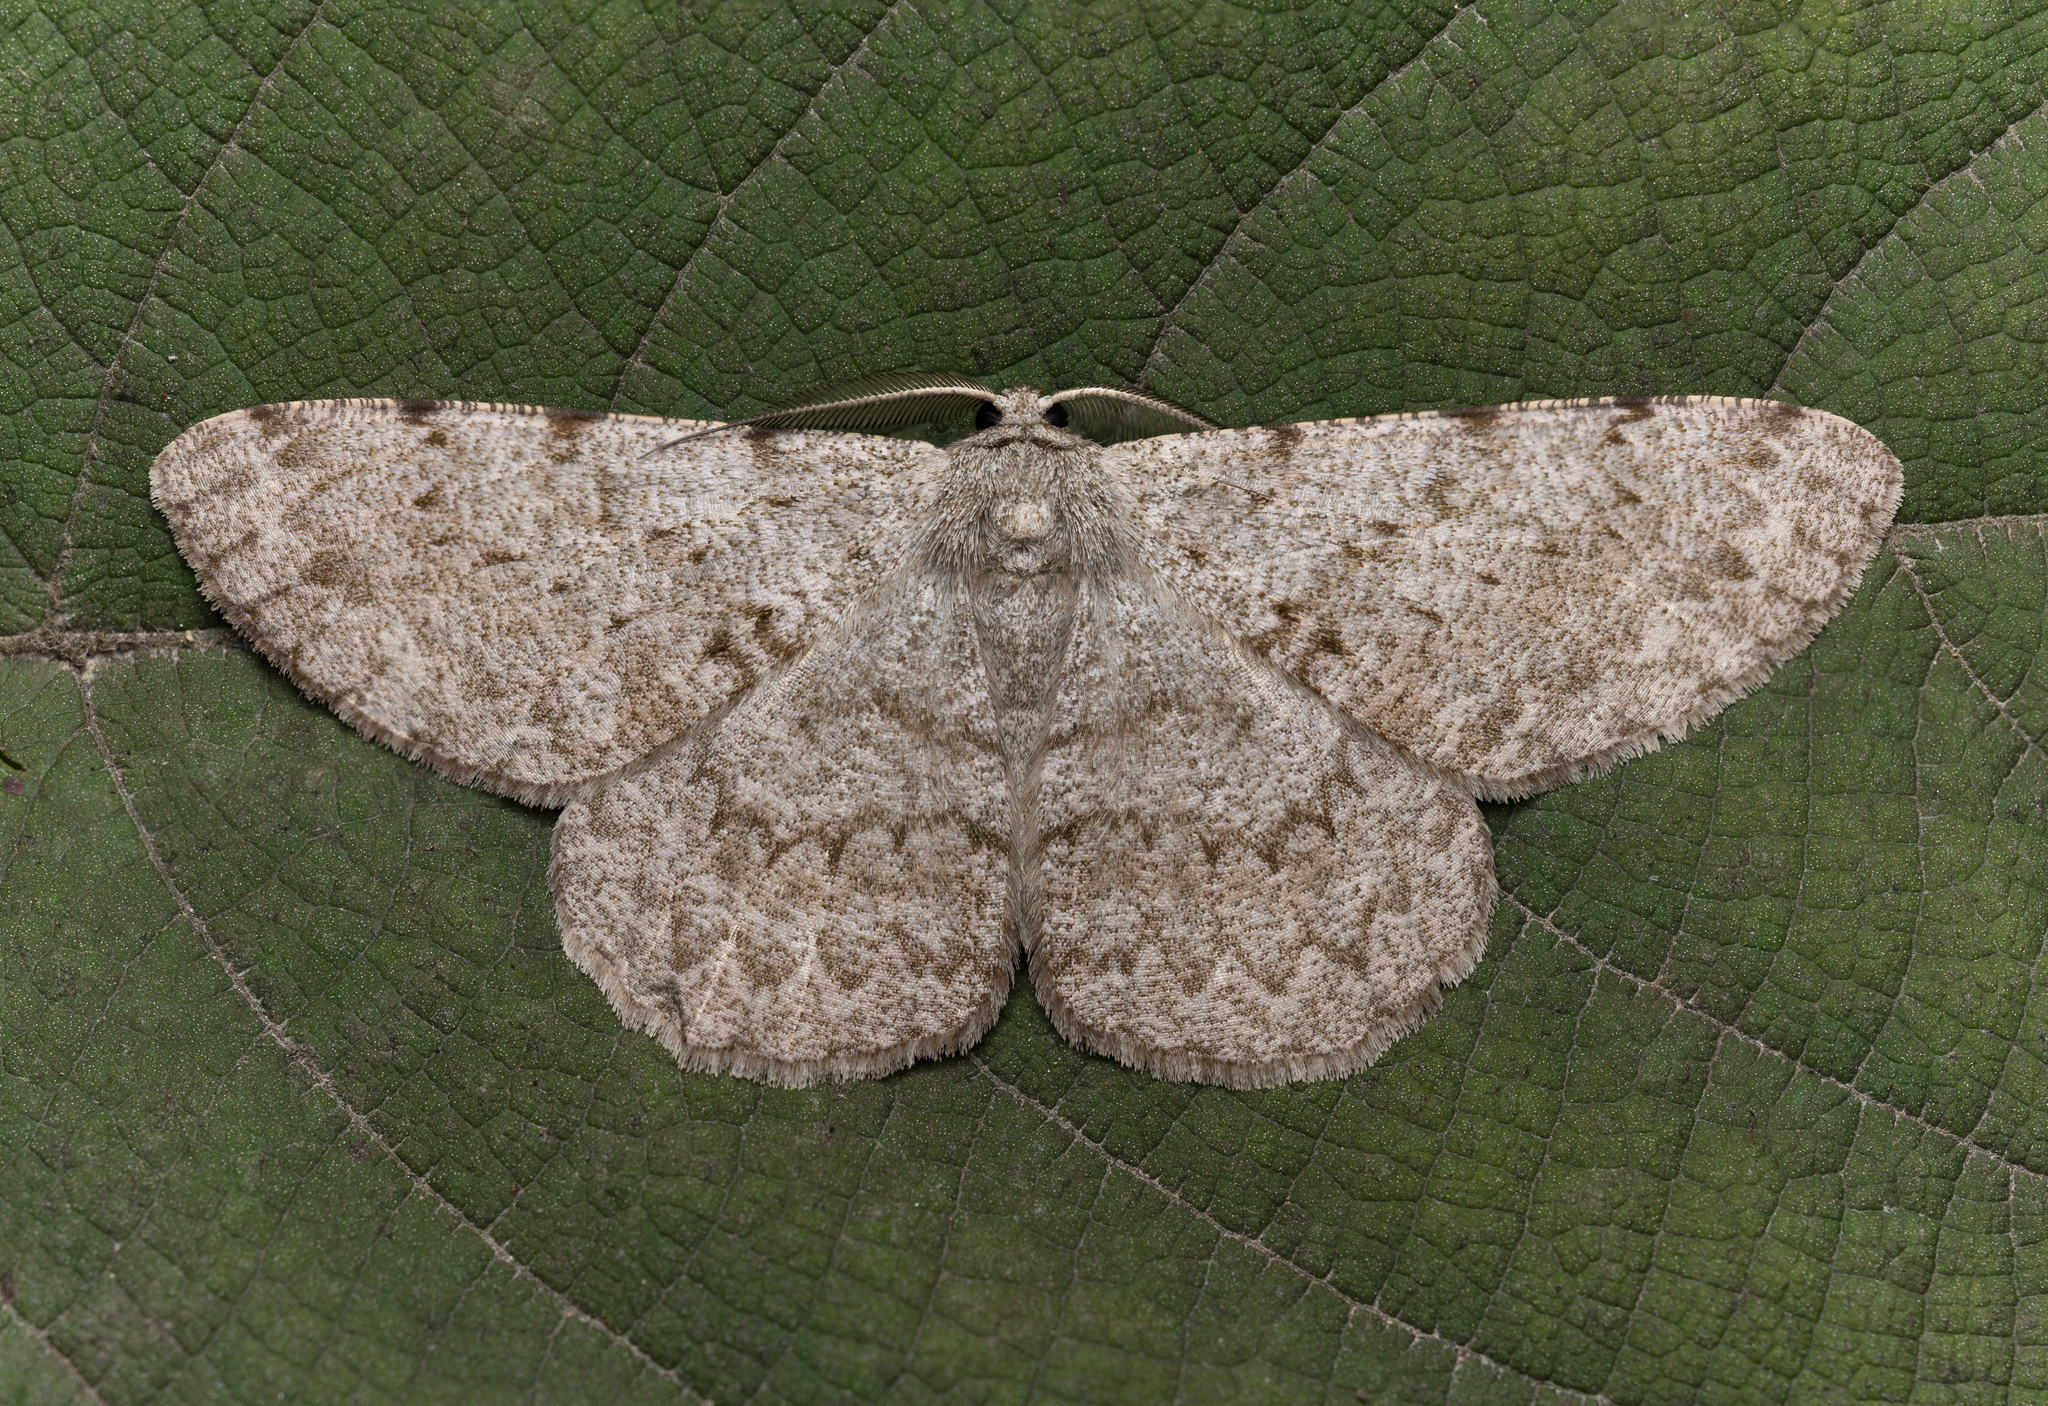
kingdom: Animalia
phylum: Arthropoda
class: Insecta
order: Lepidoptera
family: Geometridae
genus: Hypomecis
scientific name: Hypomecis cineracea
